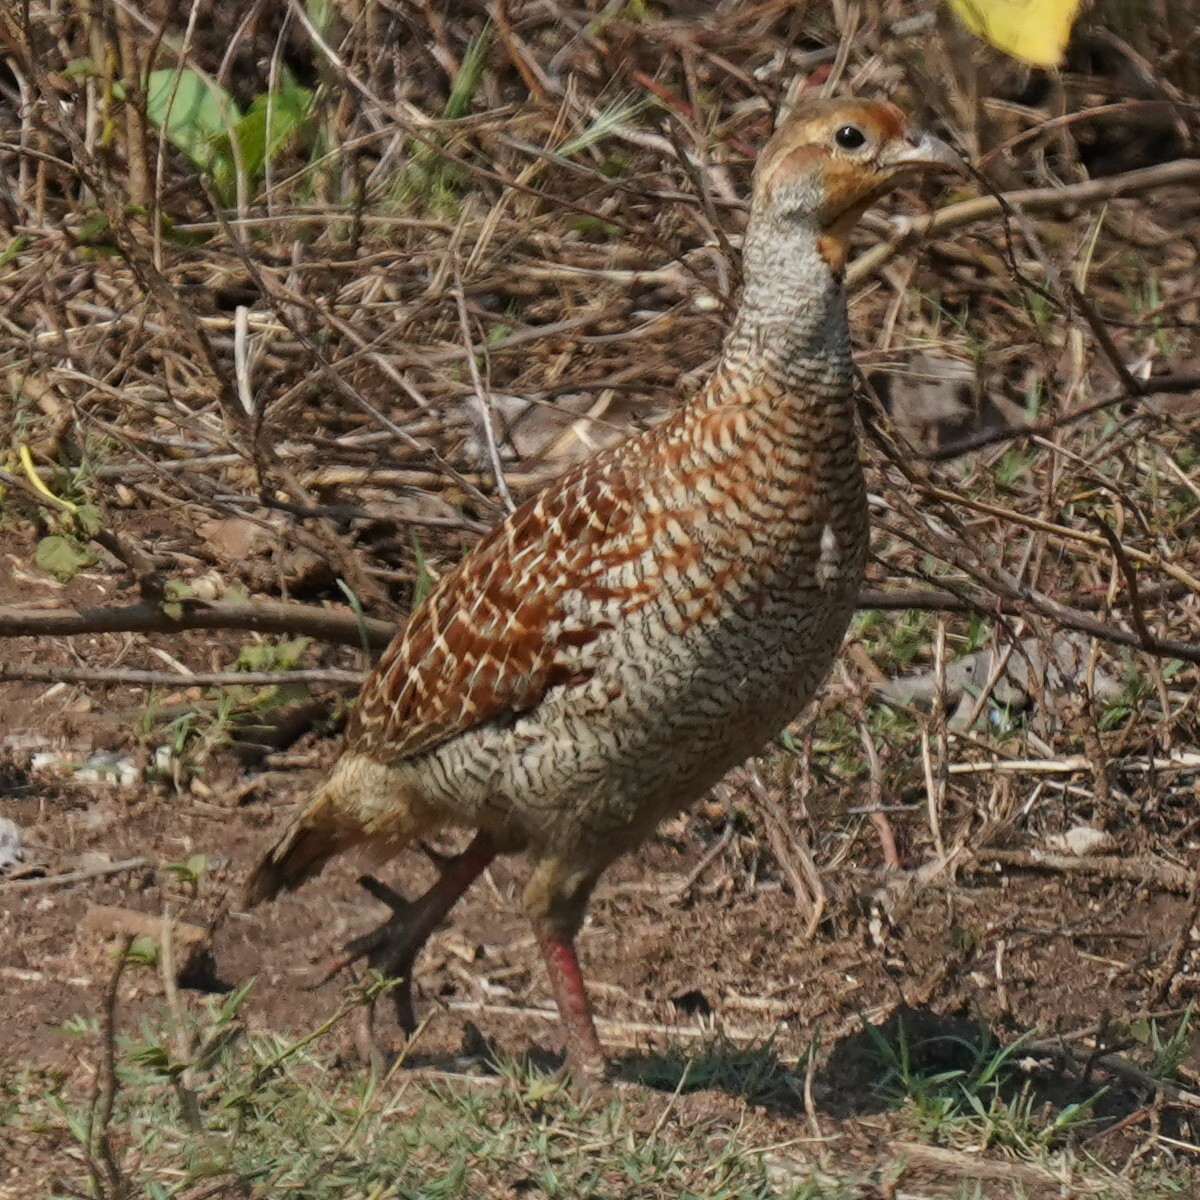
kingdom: Animalia
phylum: Chordata
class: Aves
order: Galliformes
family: Phasianidae
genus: Ortygornis
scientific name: Ortygornis pondicerianus
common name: Grey francolin
